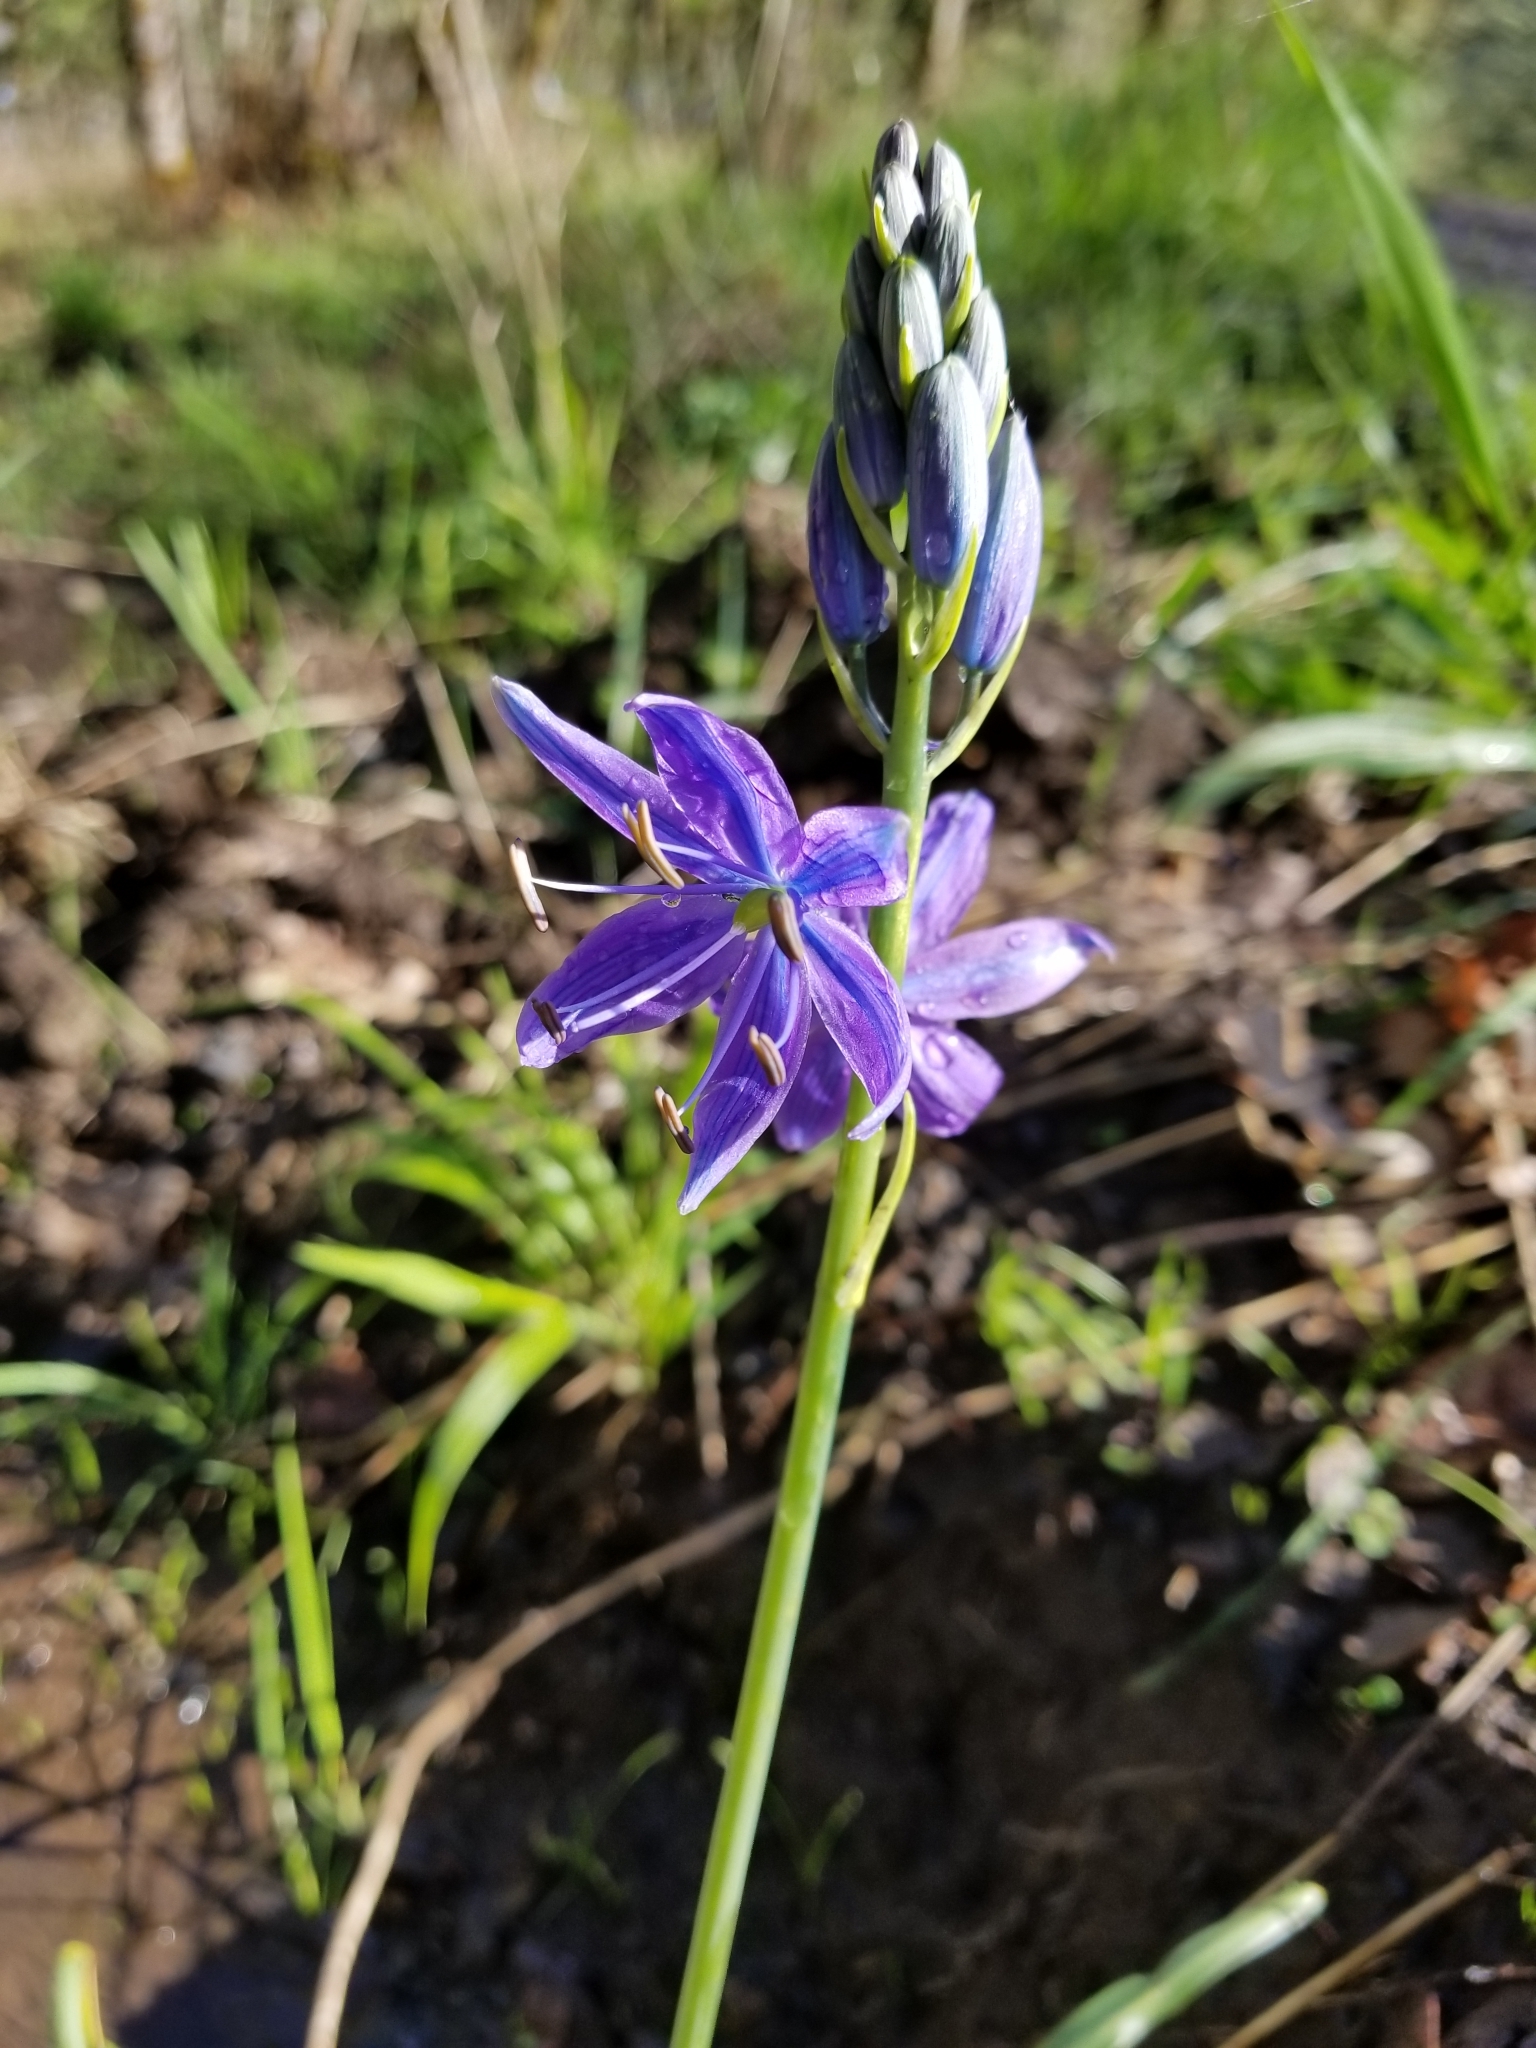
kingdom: Plantae
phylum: Tracheophyta
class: Liliopsida
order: Asparagales
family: Asparagaceae
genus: Camassia
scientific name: Camassia leichtlinii
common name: Leichtlin's camas
